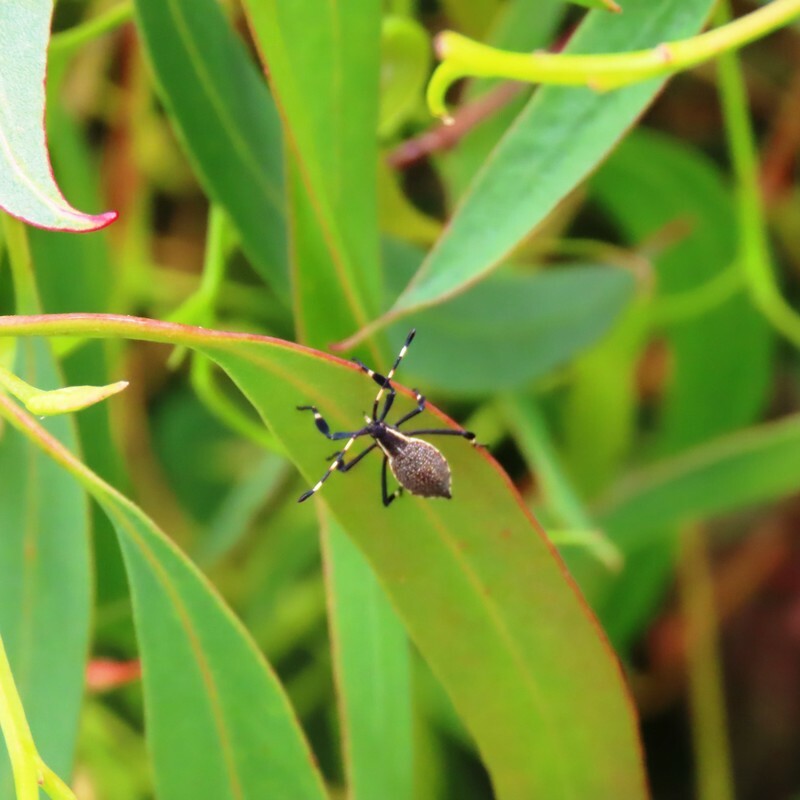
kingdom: Animalia
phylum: Arthropoda
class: Insecta
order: Hemiptera
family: Coreidae
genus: Gelonus
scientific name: Gelonus tasmanicus
